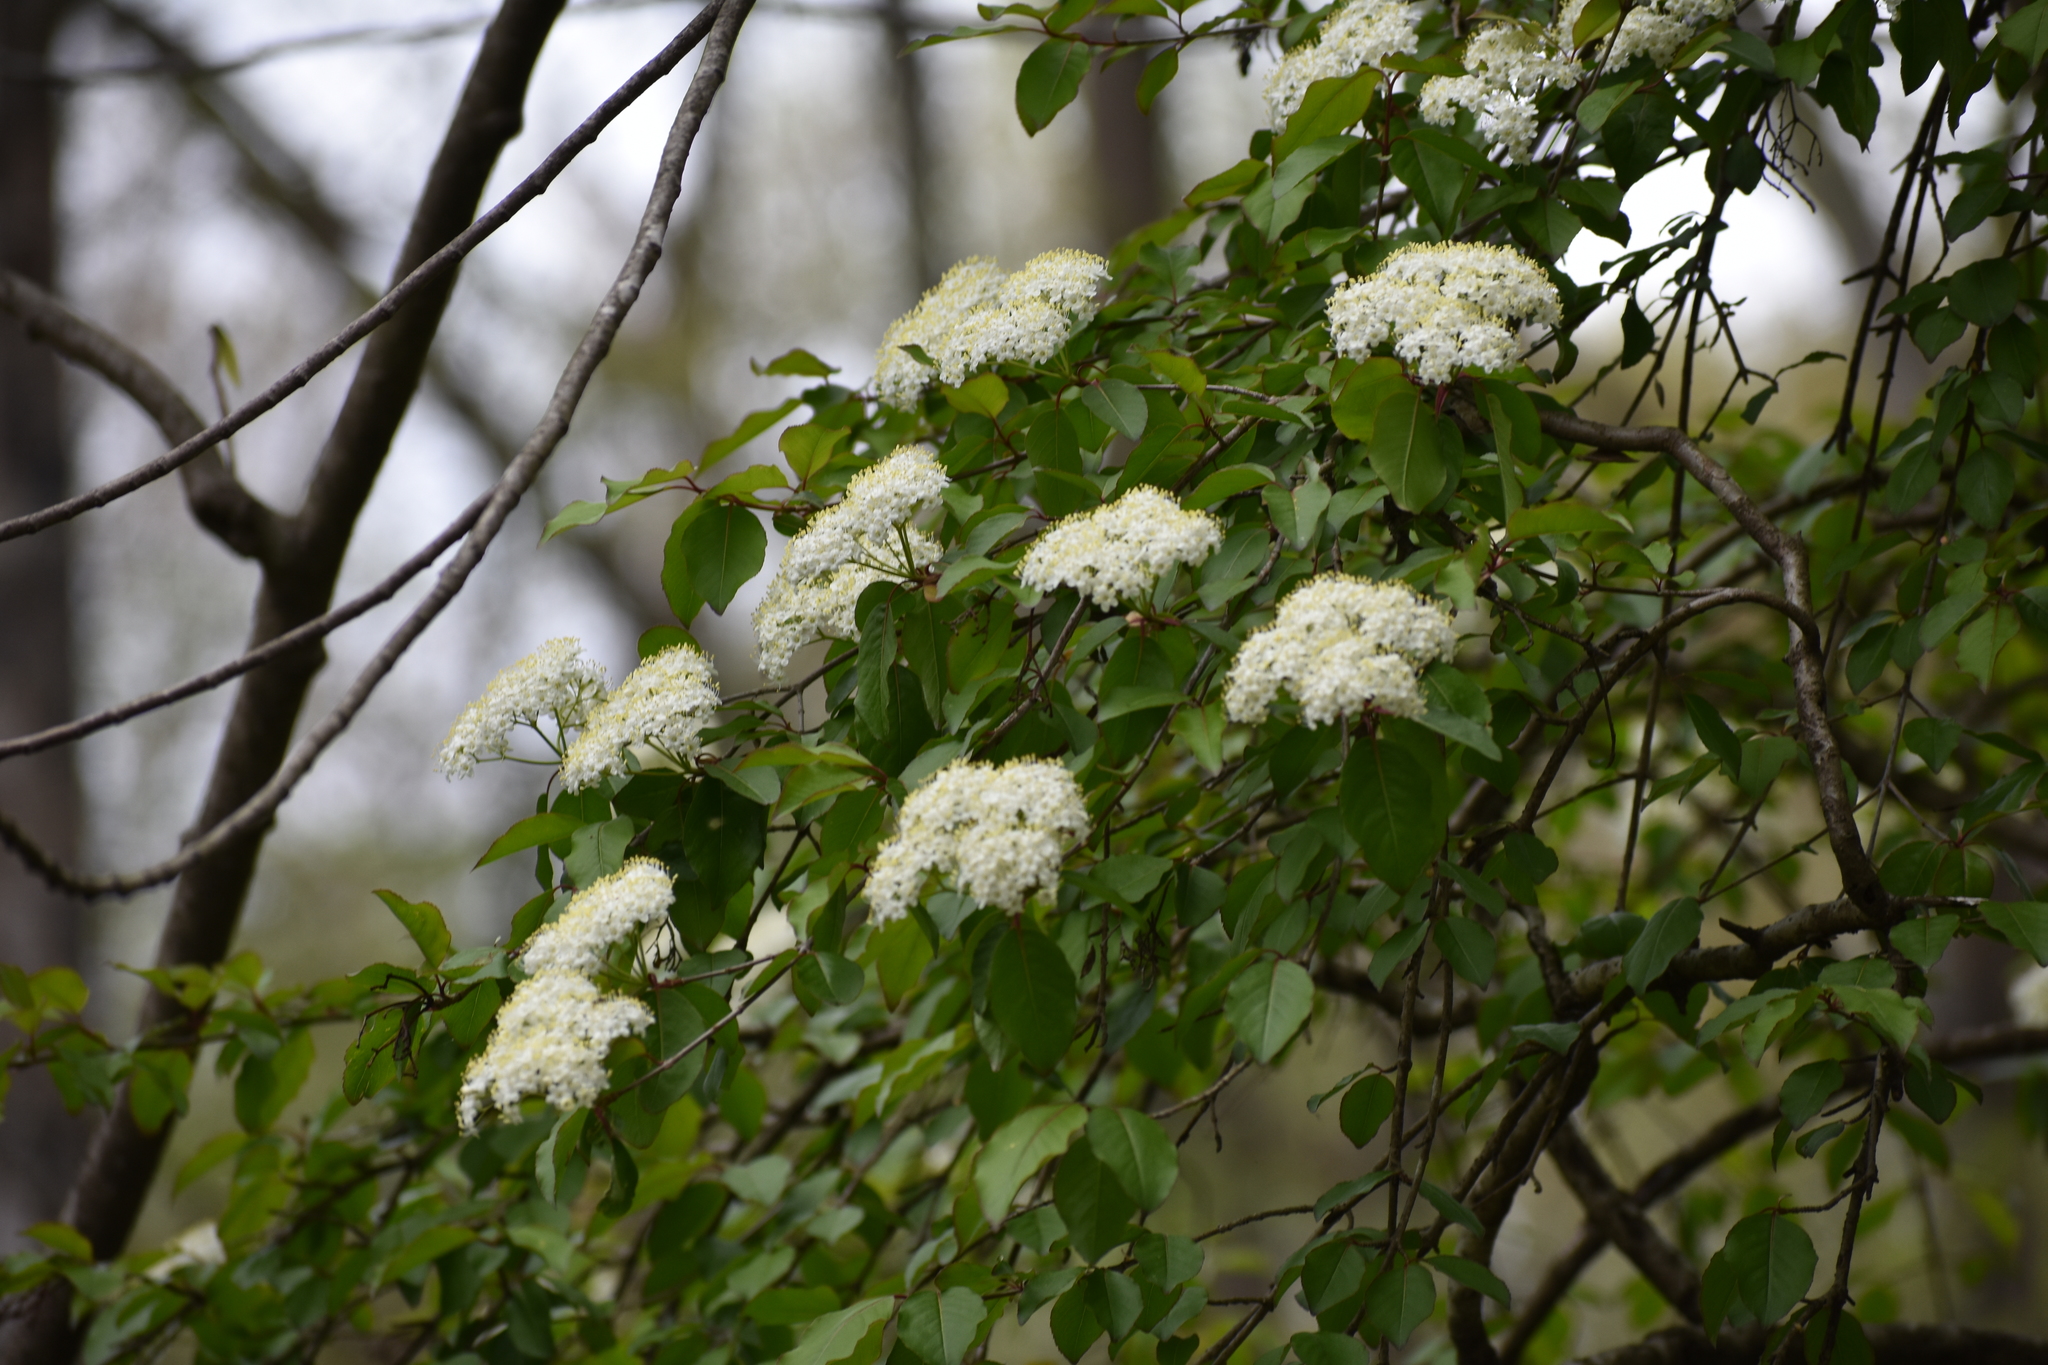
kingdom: Plantae
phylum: Tracheophyta
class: Magnoliopsida
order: Dipsacales
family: Viburnaceae
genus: Viburnum
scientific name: Viburnum prunifolium
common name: Black haw
